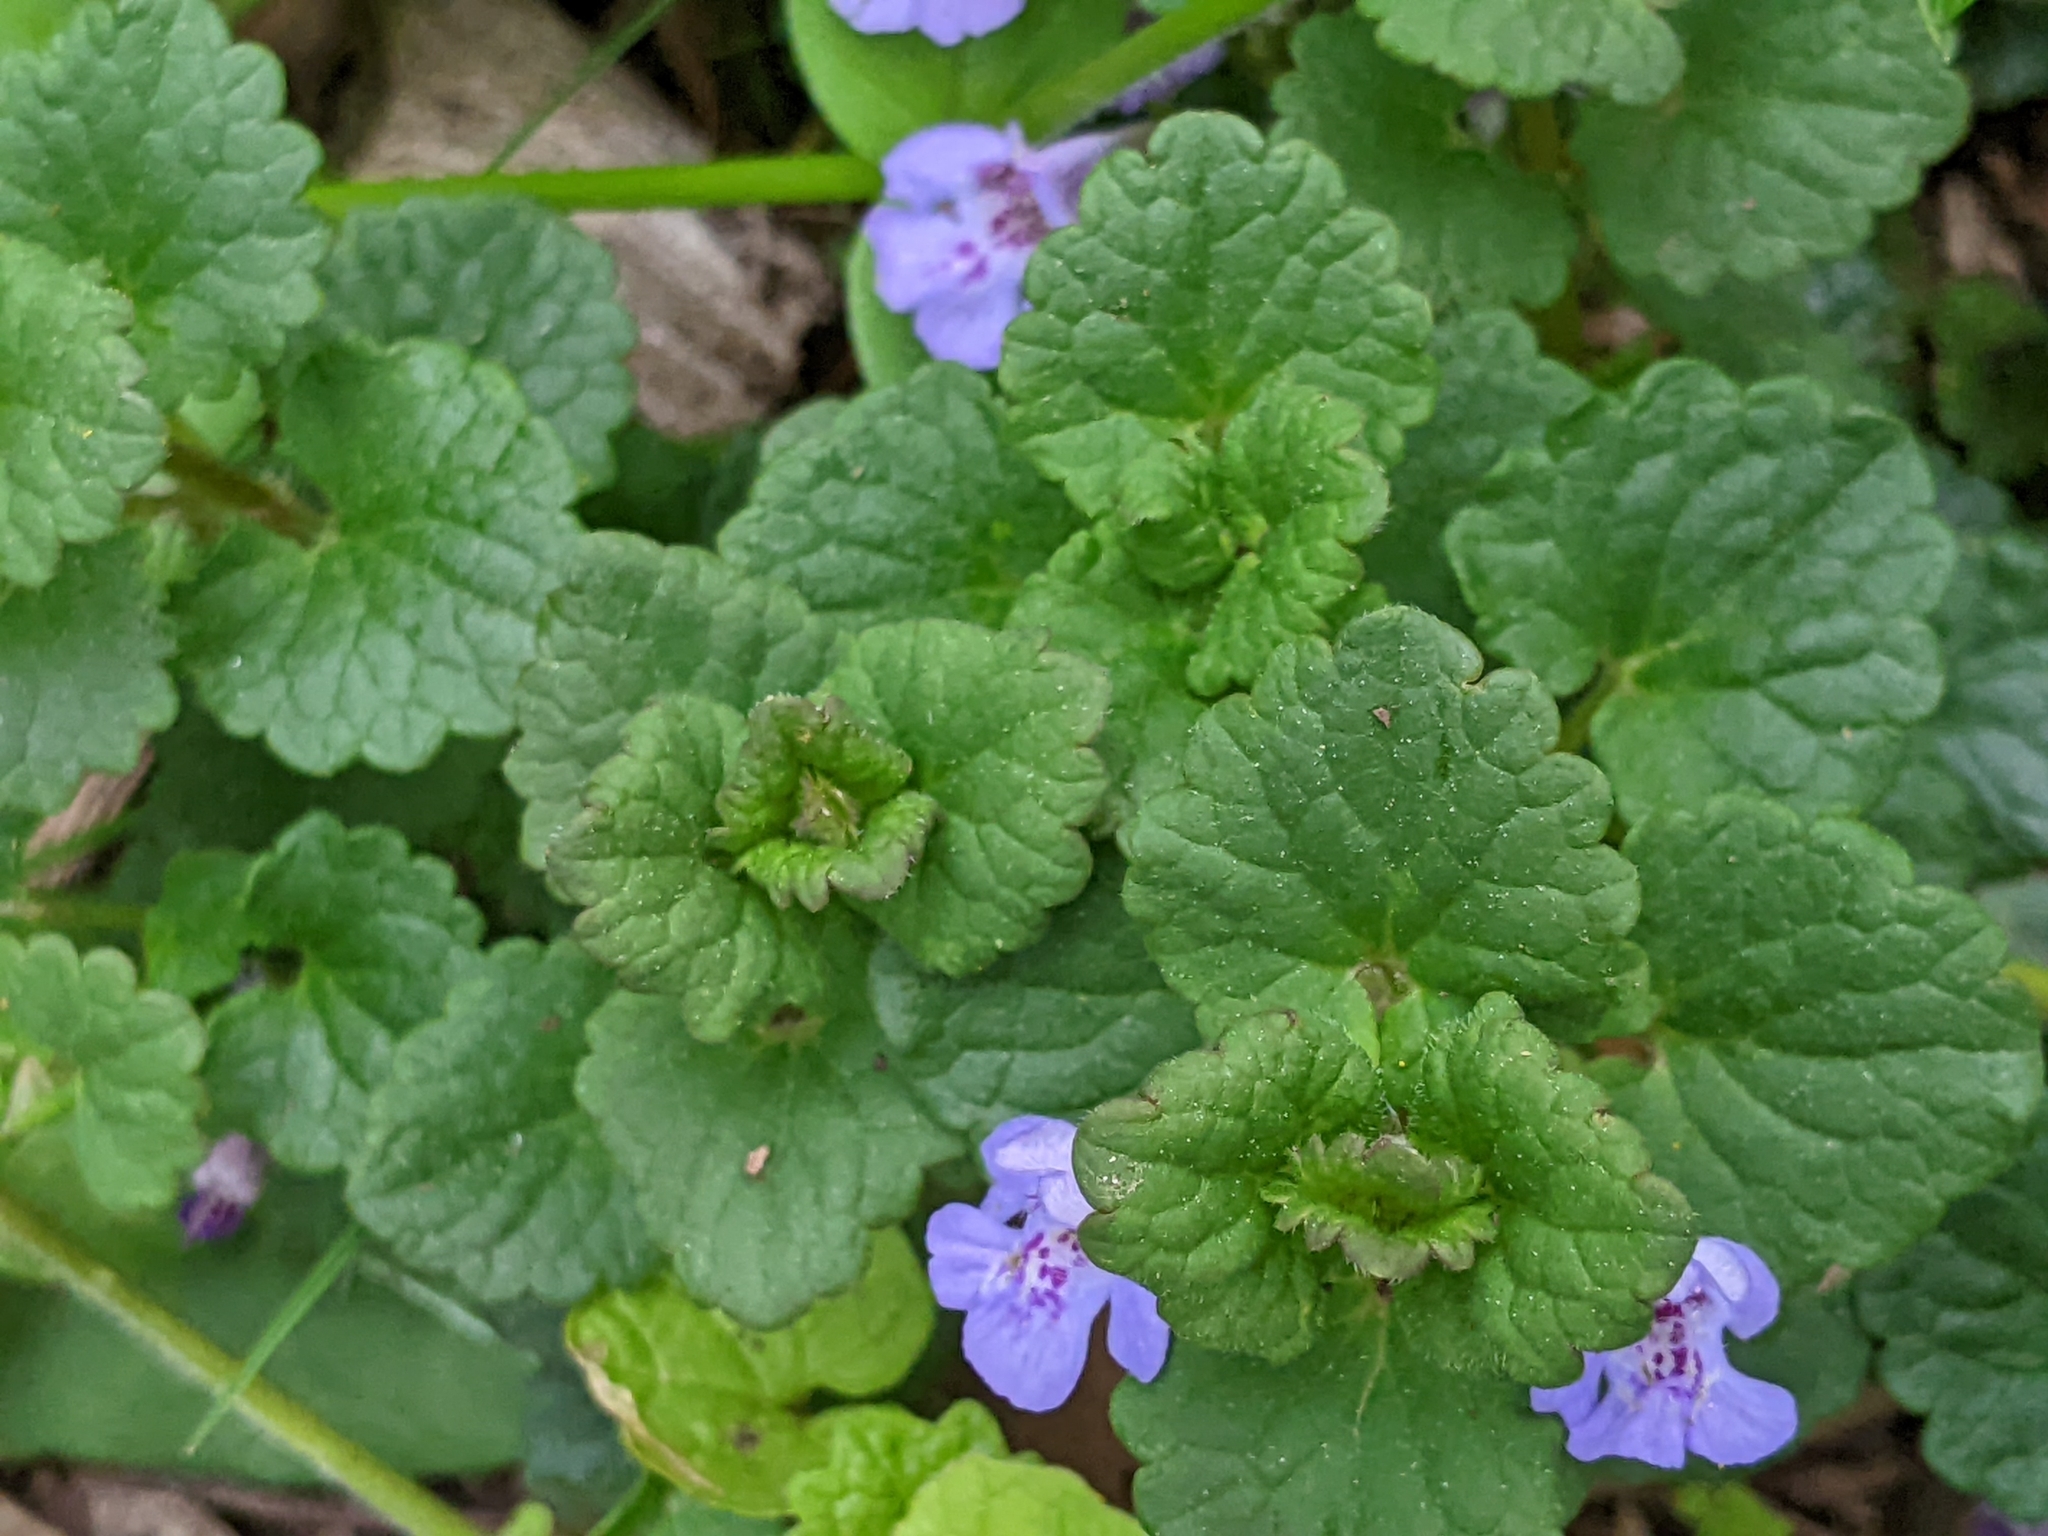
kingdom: Plantae
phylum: Tracheophyta
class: Magnoliopsida
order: Lamiales
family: Lamiaceae
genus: Glechoma
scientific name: Glechoma hederacea
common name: Ground ivy
